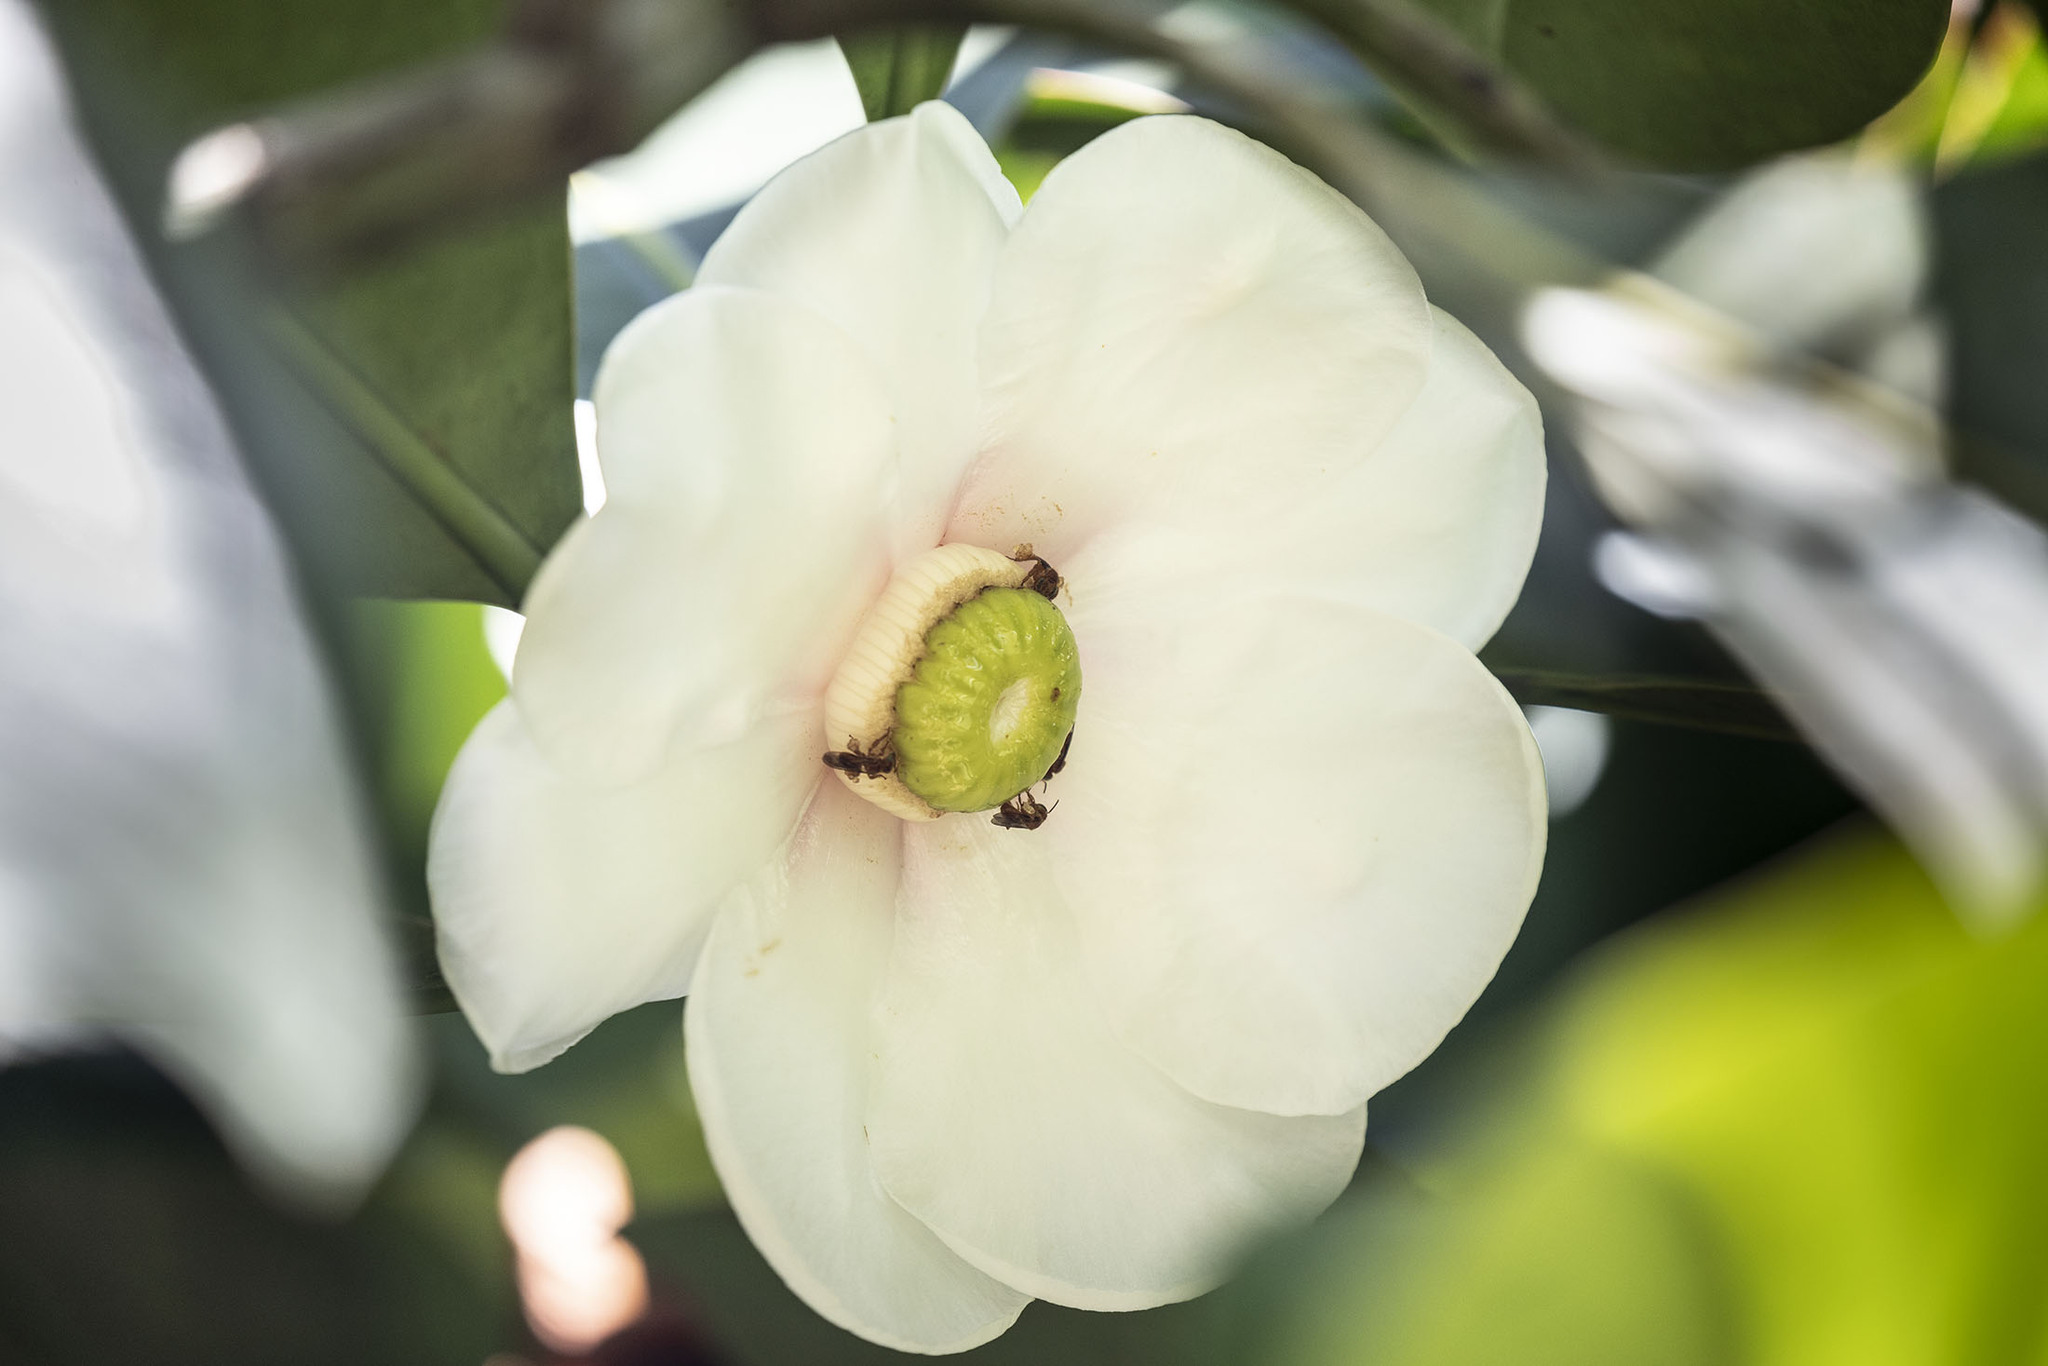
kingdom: Plantae
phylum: Tracheophyta
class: Magnoliopsida
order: Malpighiales
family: Clusiaceae
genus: Clusia
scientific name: Clusia grandiflora
